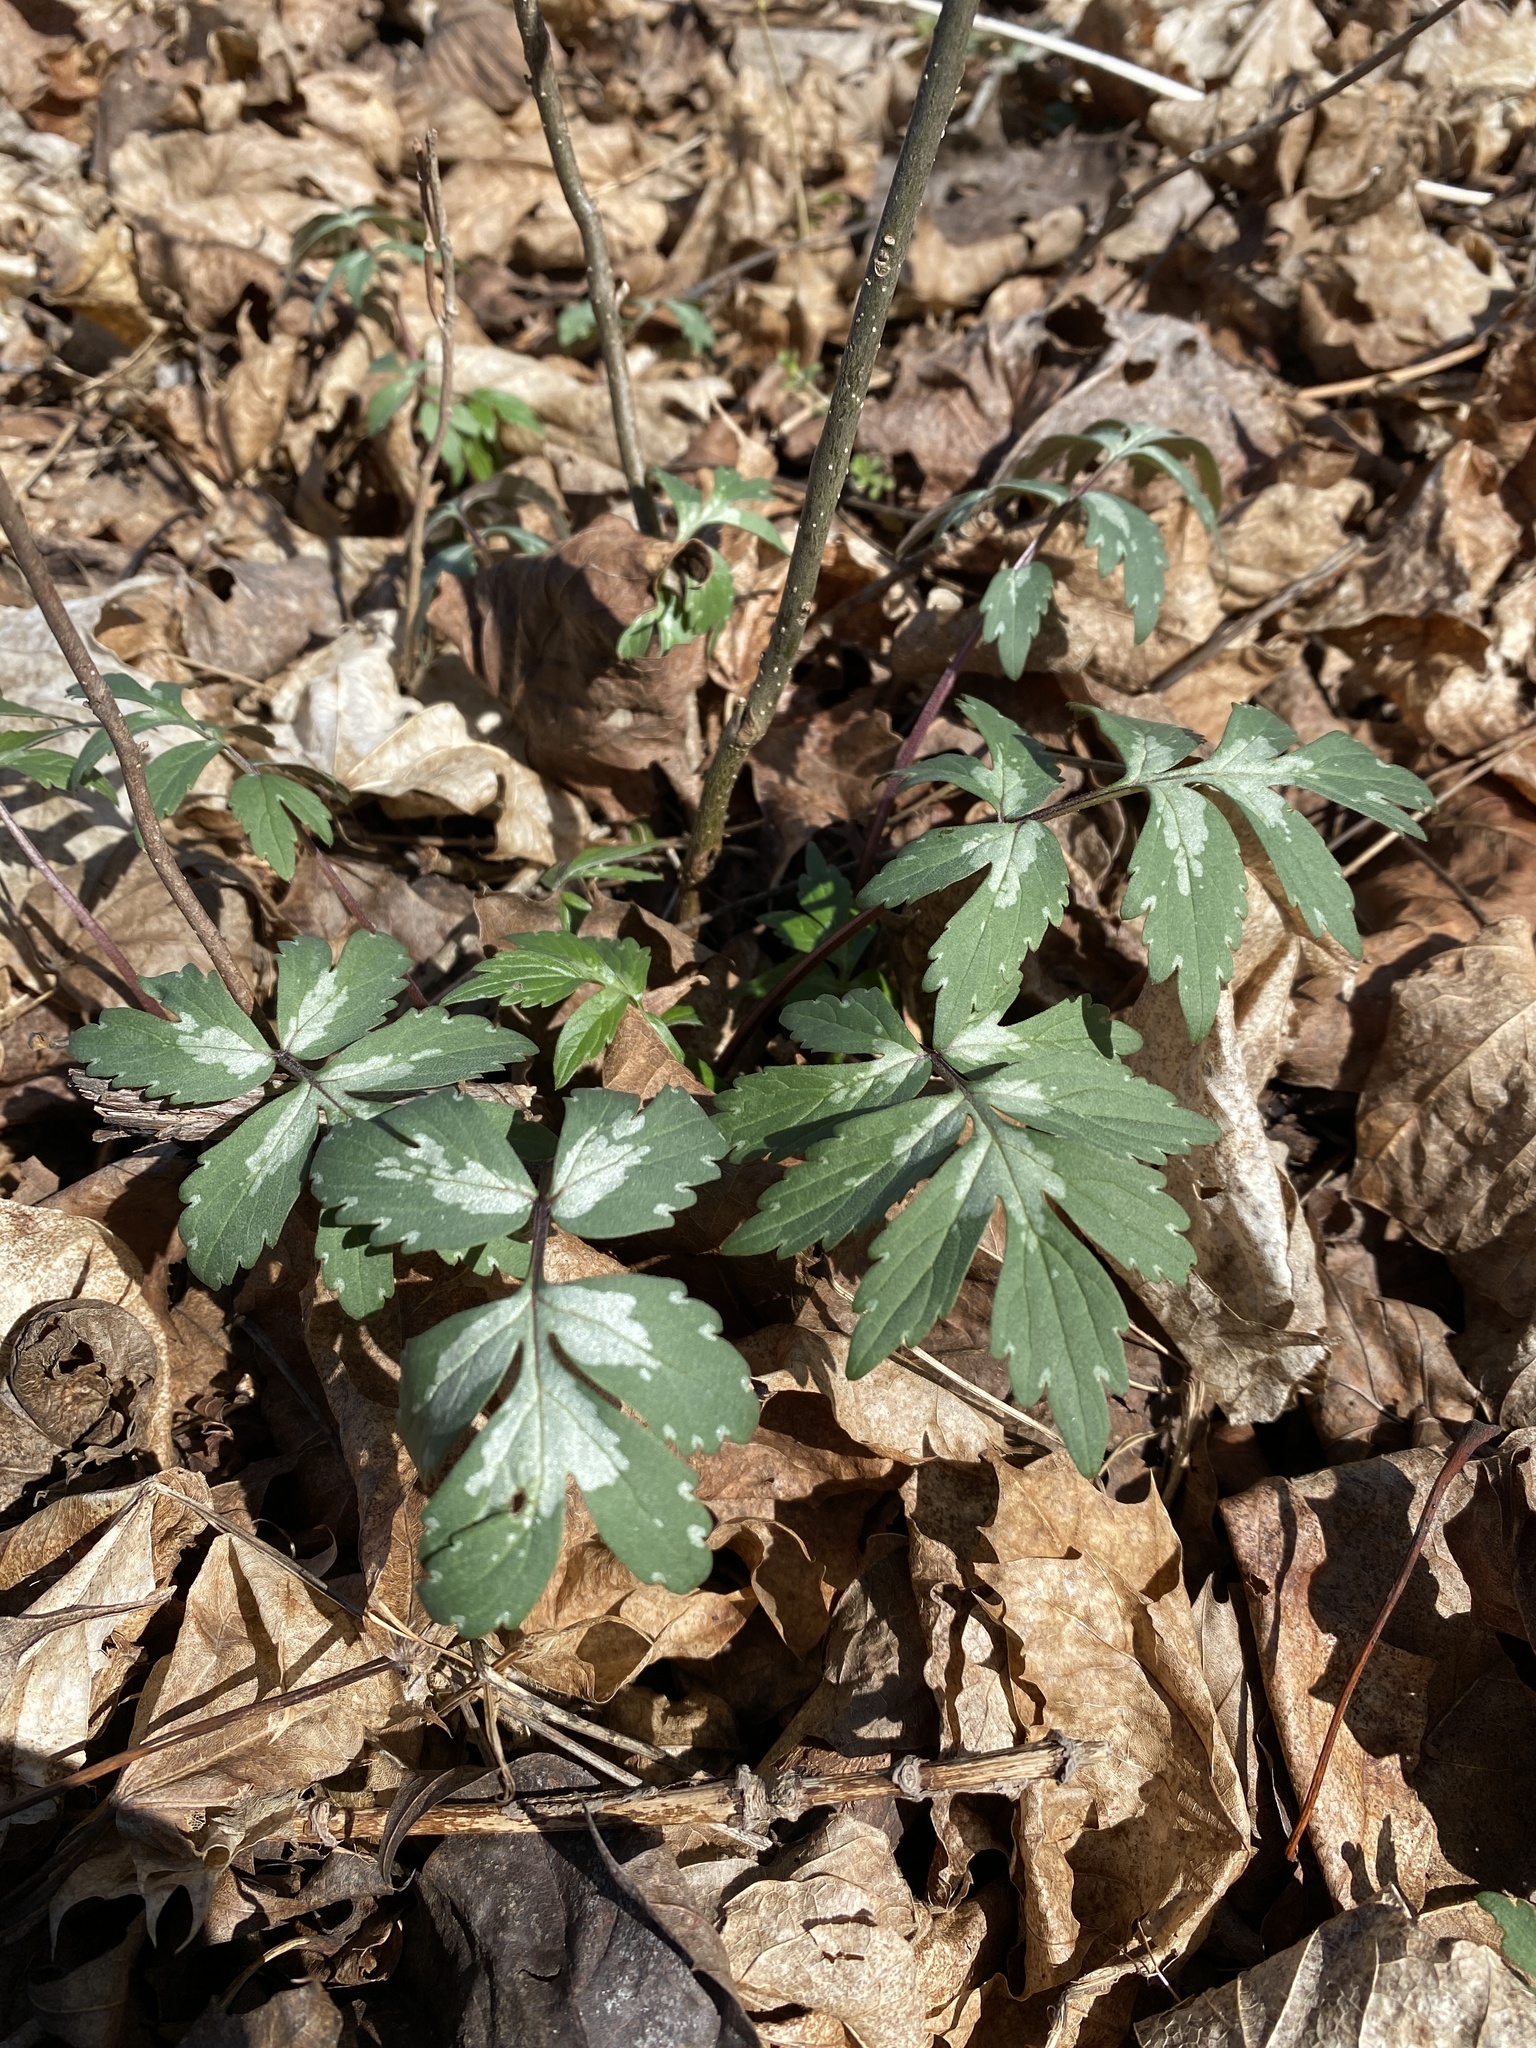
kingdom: Plantae
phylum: Tracheophyta
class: Magnoliopsida
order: Boraginales
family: Hydrophyllaceae
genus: Hydrophyllum
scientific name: Hydrophyllum virginianum
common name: Virginia waterleaf
